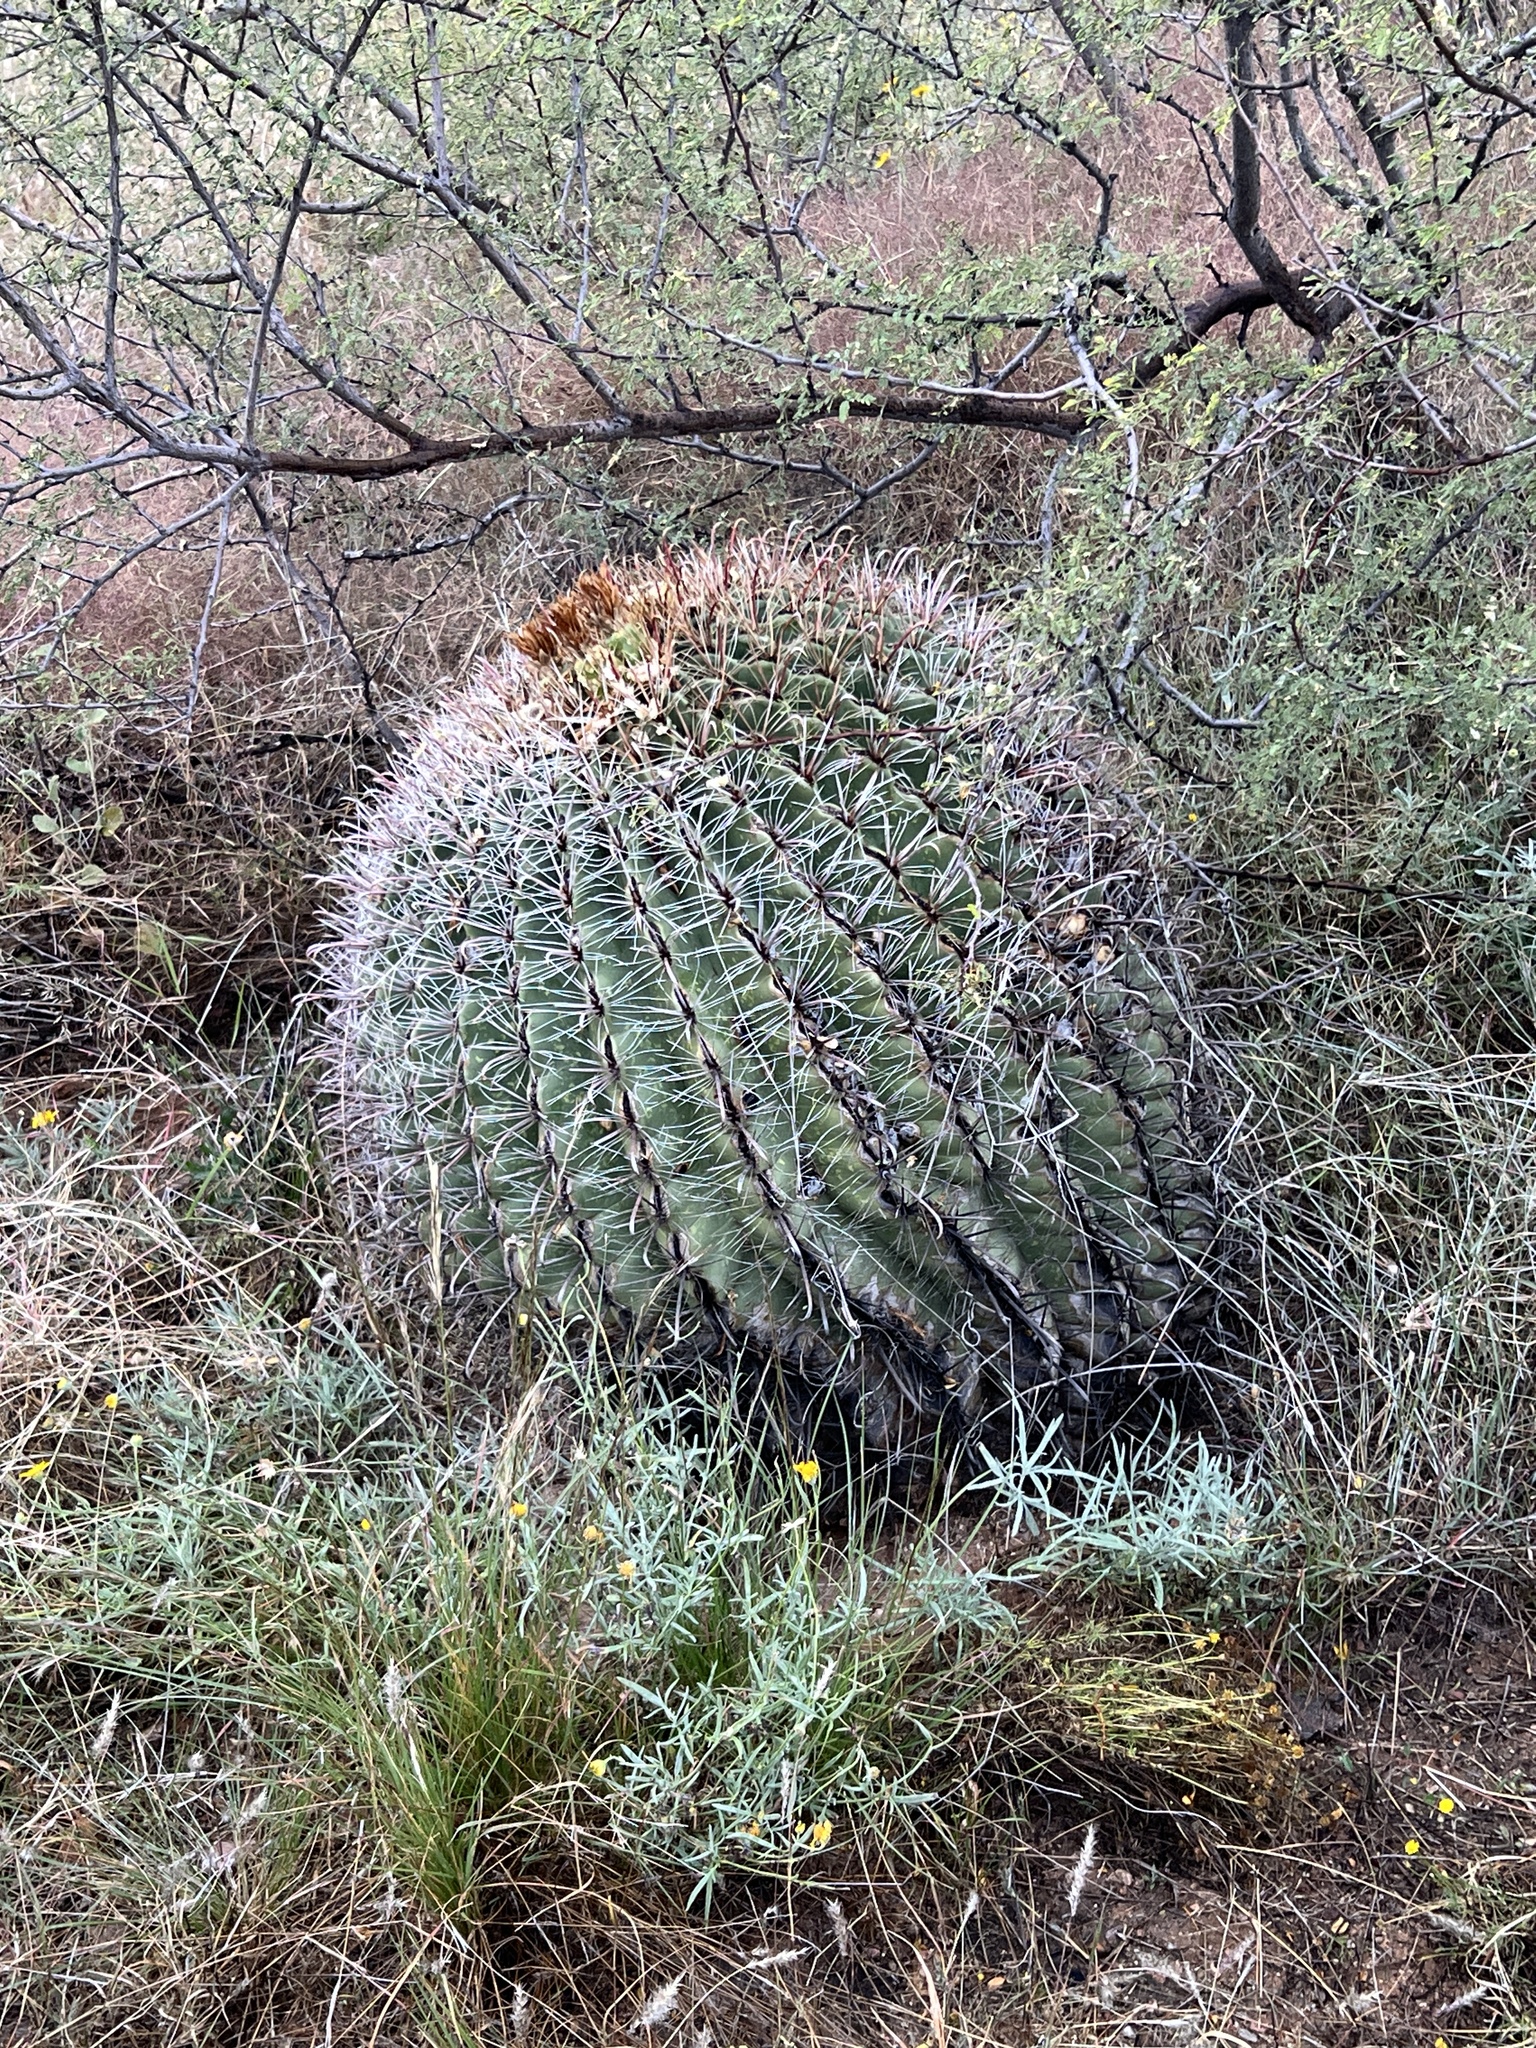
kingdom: Plantae
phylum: Tracheophyta
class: Magnoliopsida
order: Caryophyllales
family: Cactaceae
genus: Ferocactus
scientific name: Ferocactus wislizeni
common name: Candy barrel cactus
